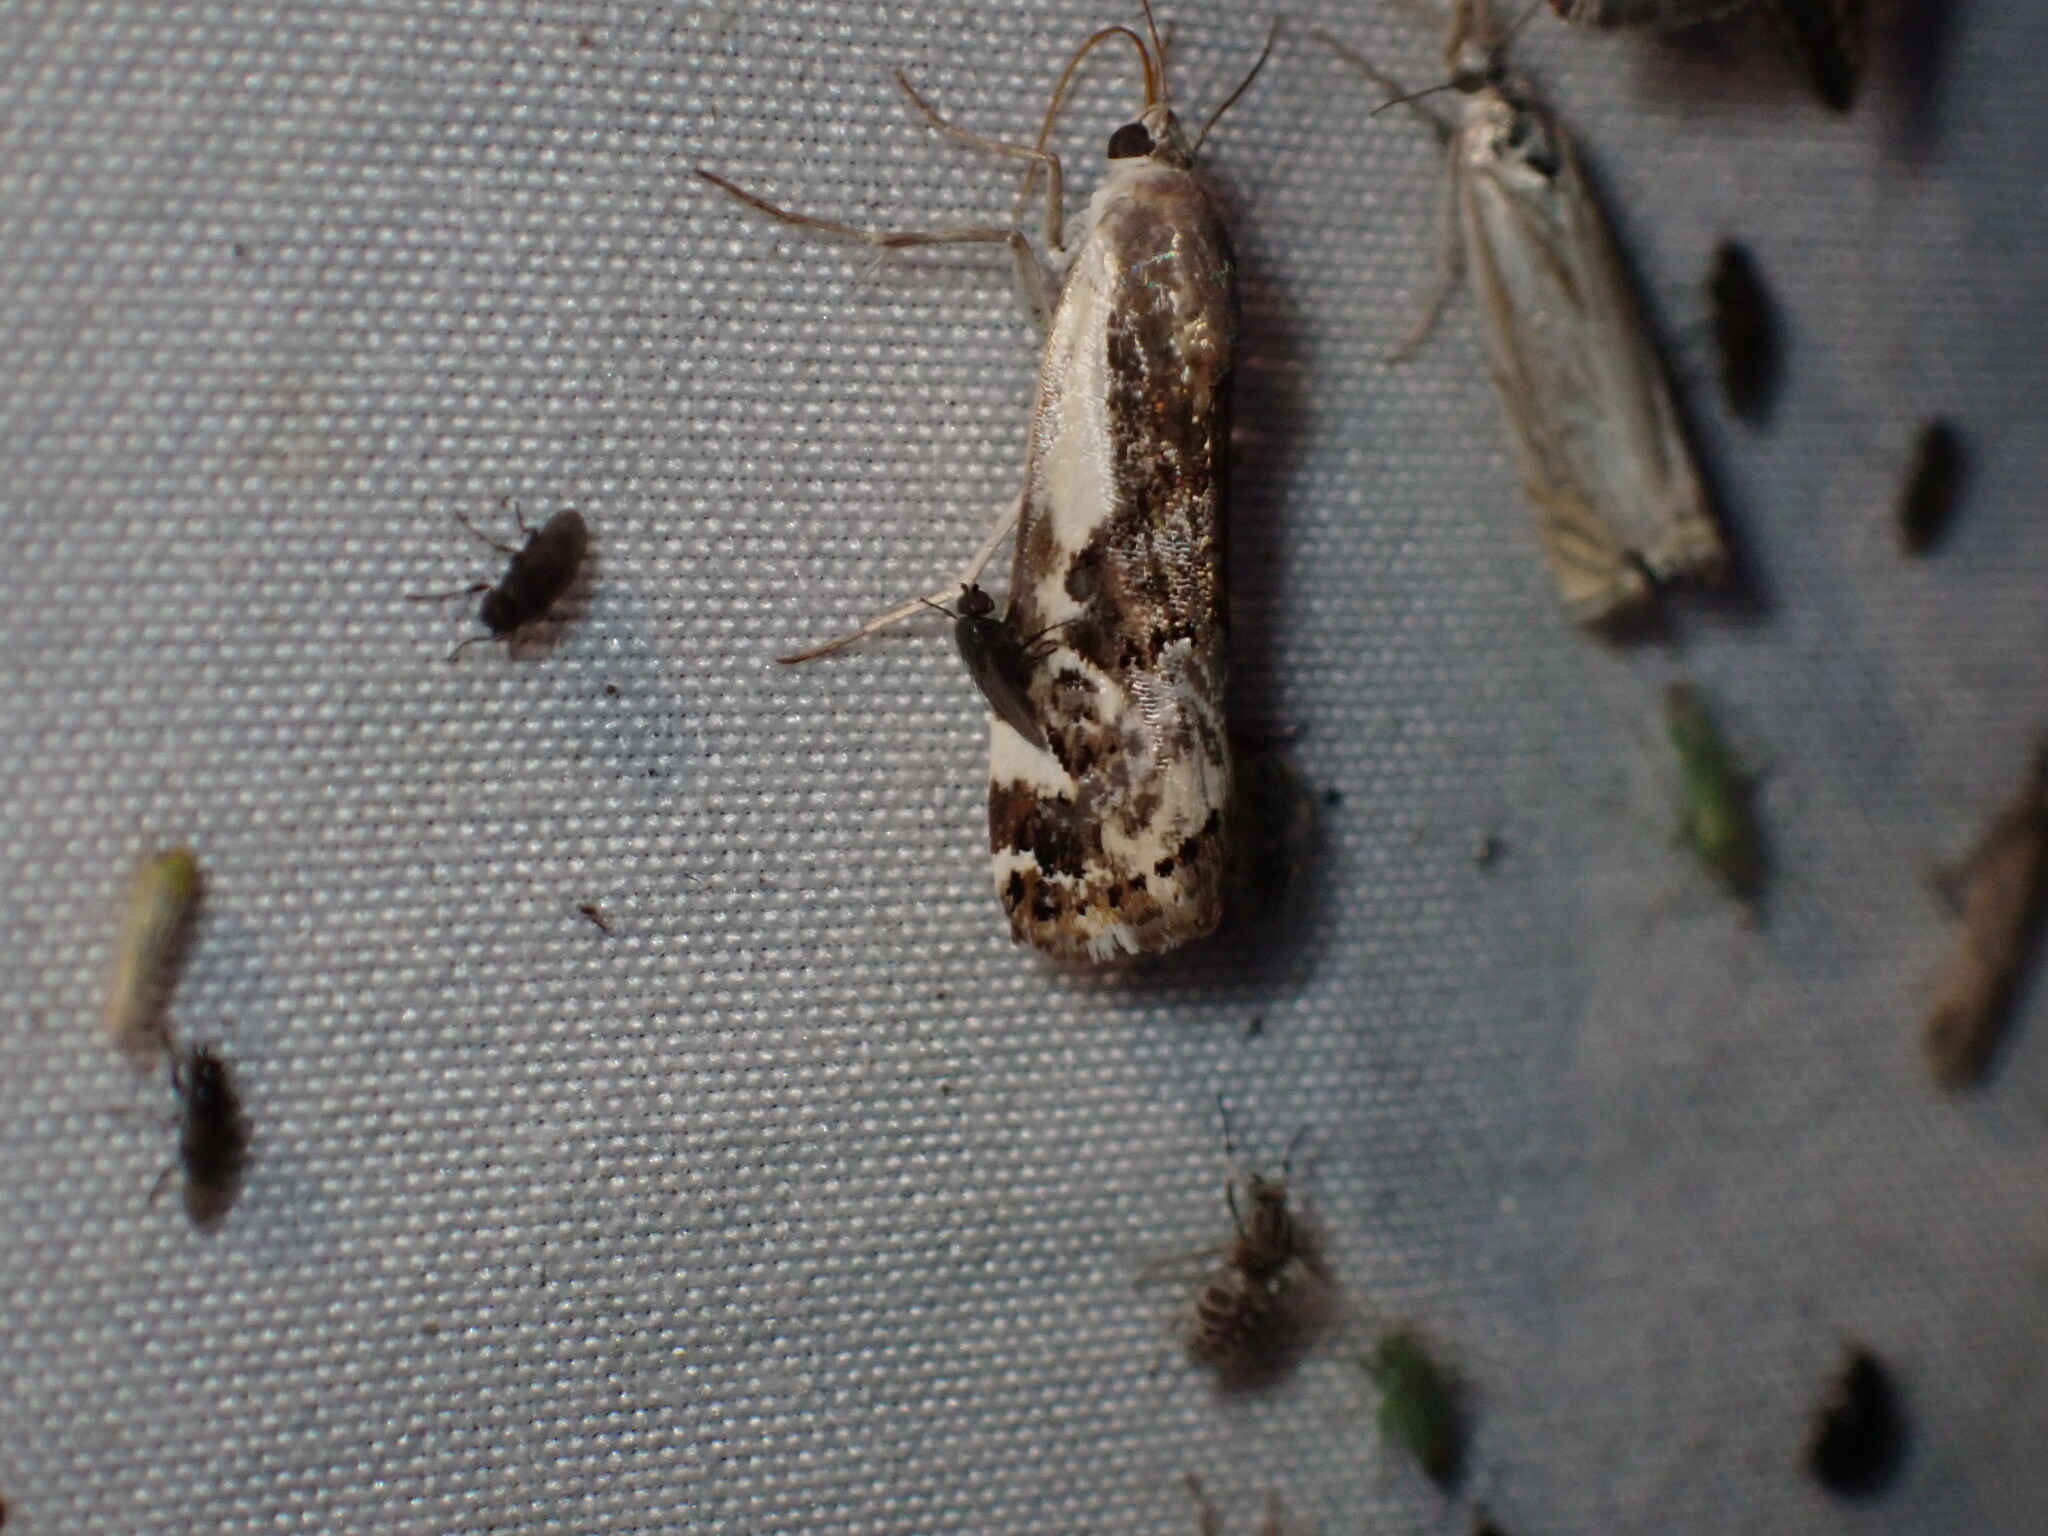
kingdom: Animalia
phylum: Arthropoda
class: Insecta
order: Lepidoptera
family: Noctuidae
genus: Acontia
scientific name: Acontia Tarache augustipennis
